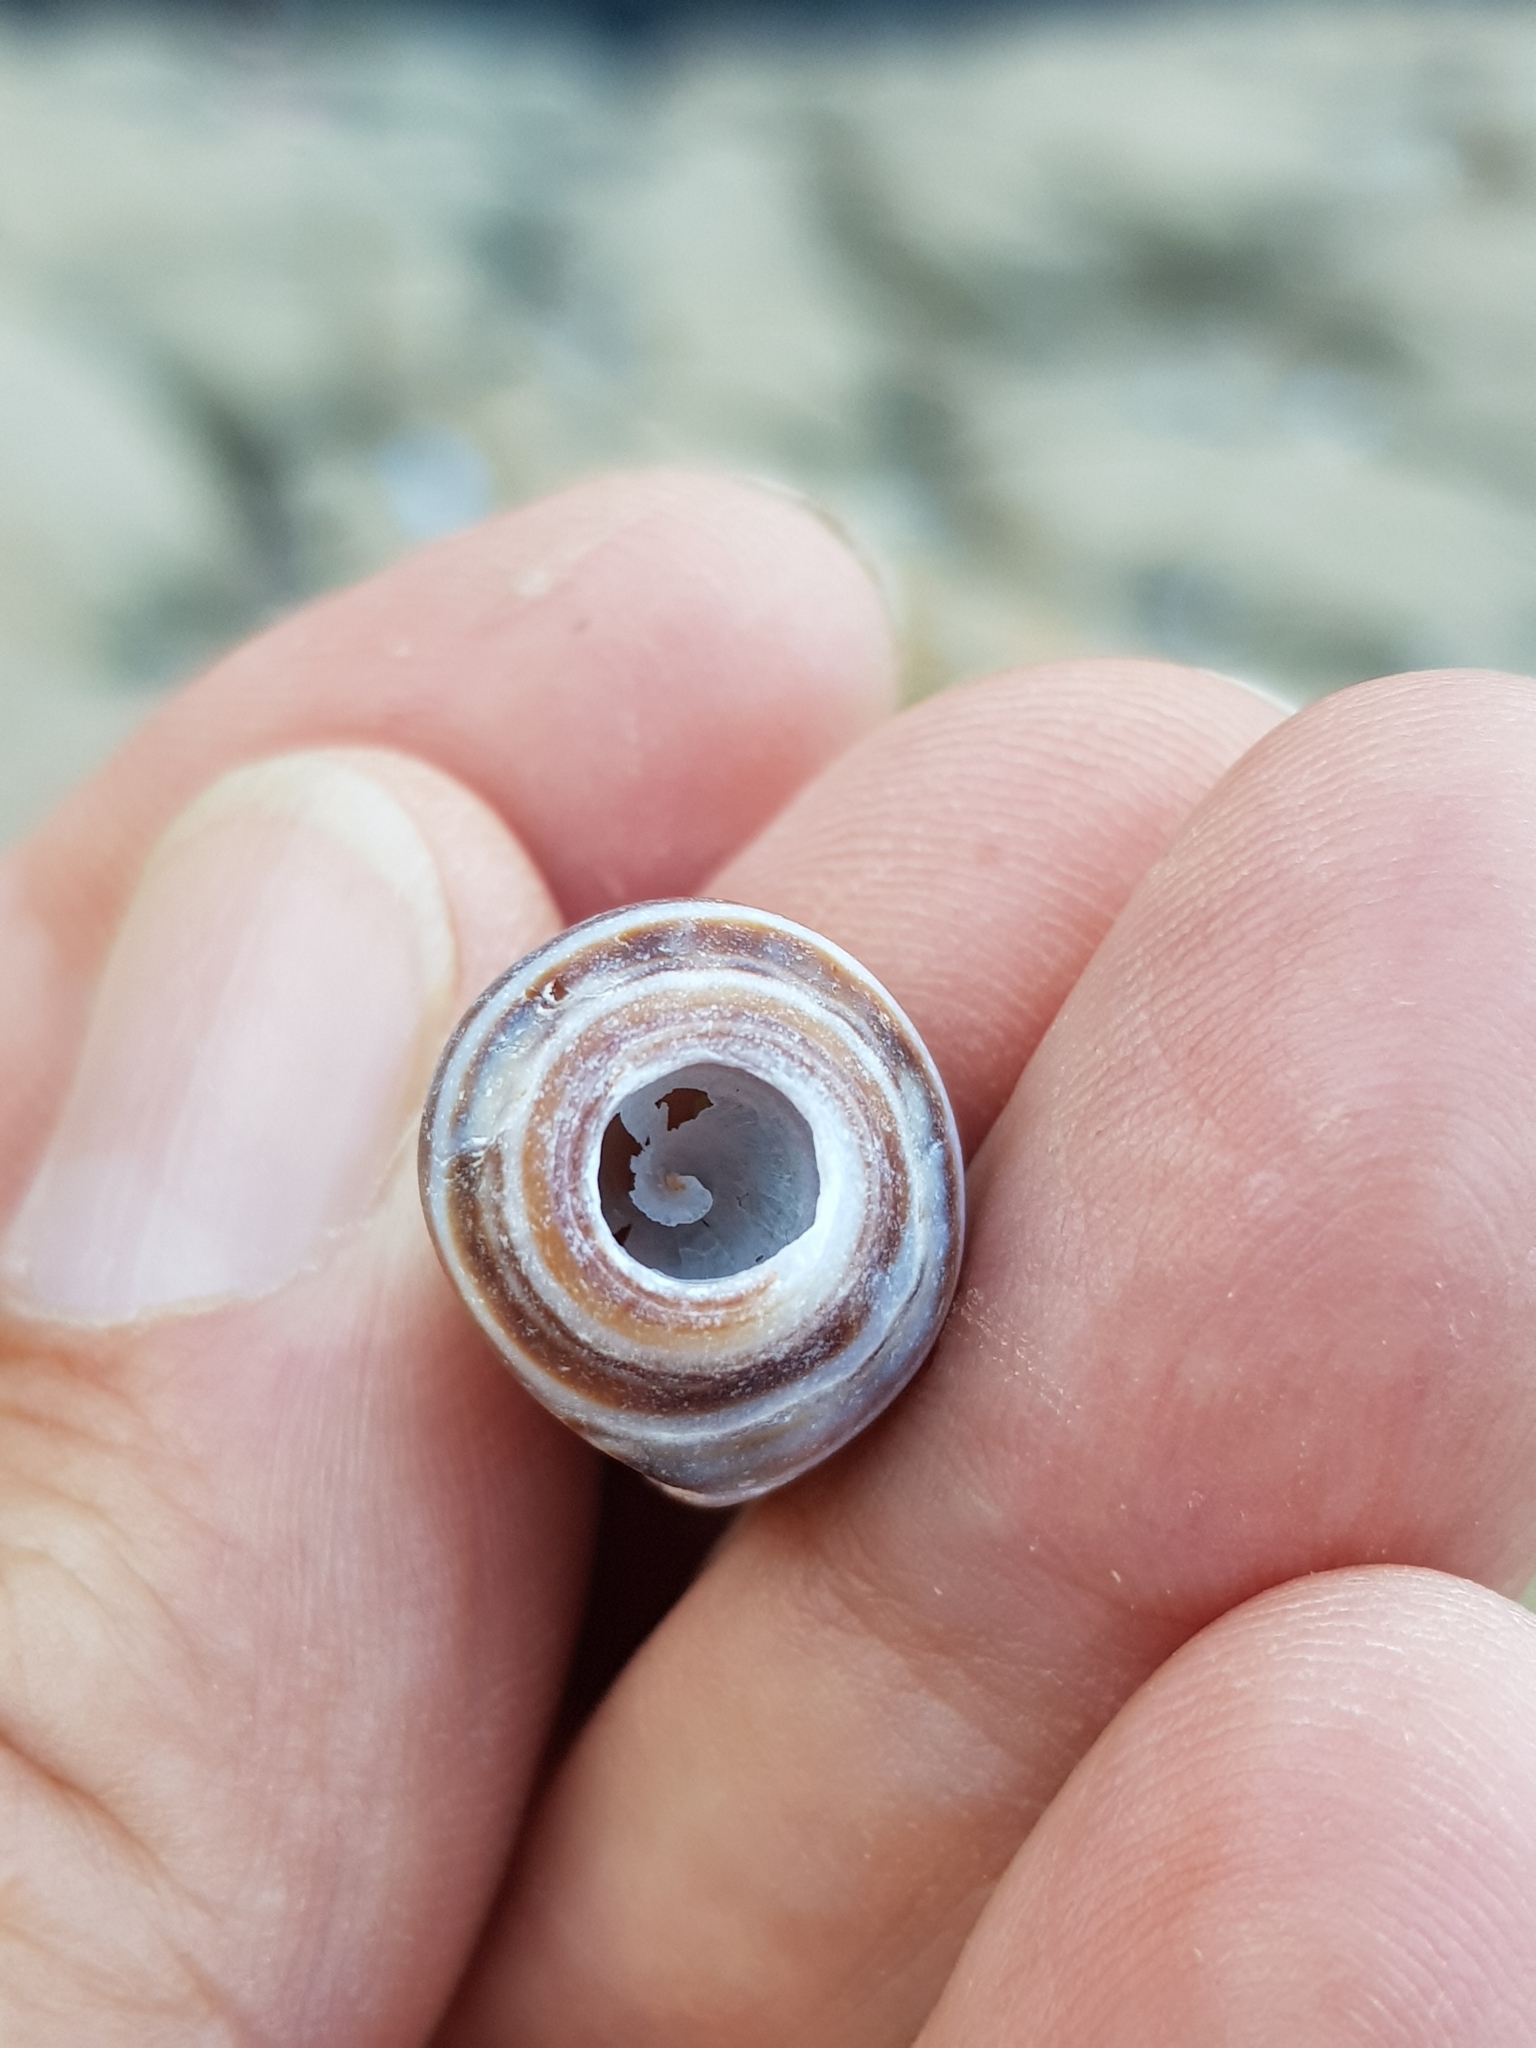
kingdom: Animalia
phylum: Mollusca
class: Gastropoda
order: Neogastropoda
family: Conidae
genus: Conus
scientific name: Conus ventricosus
